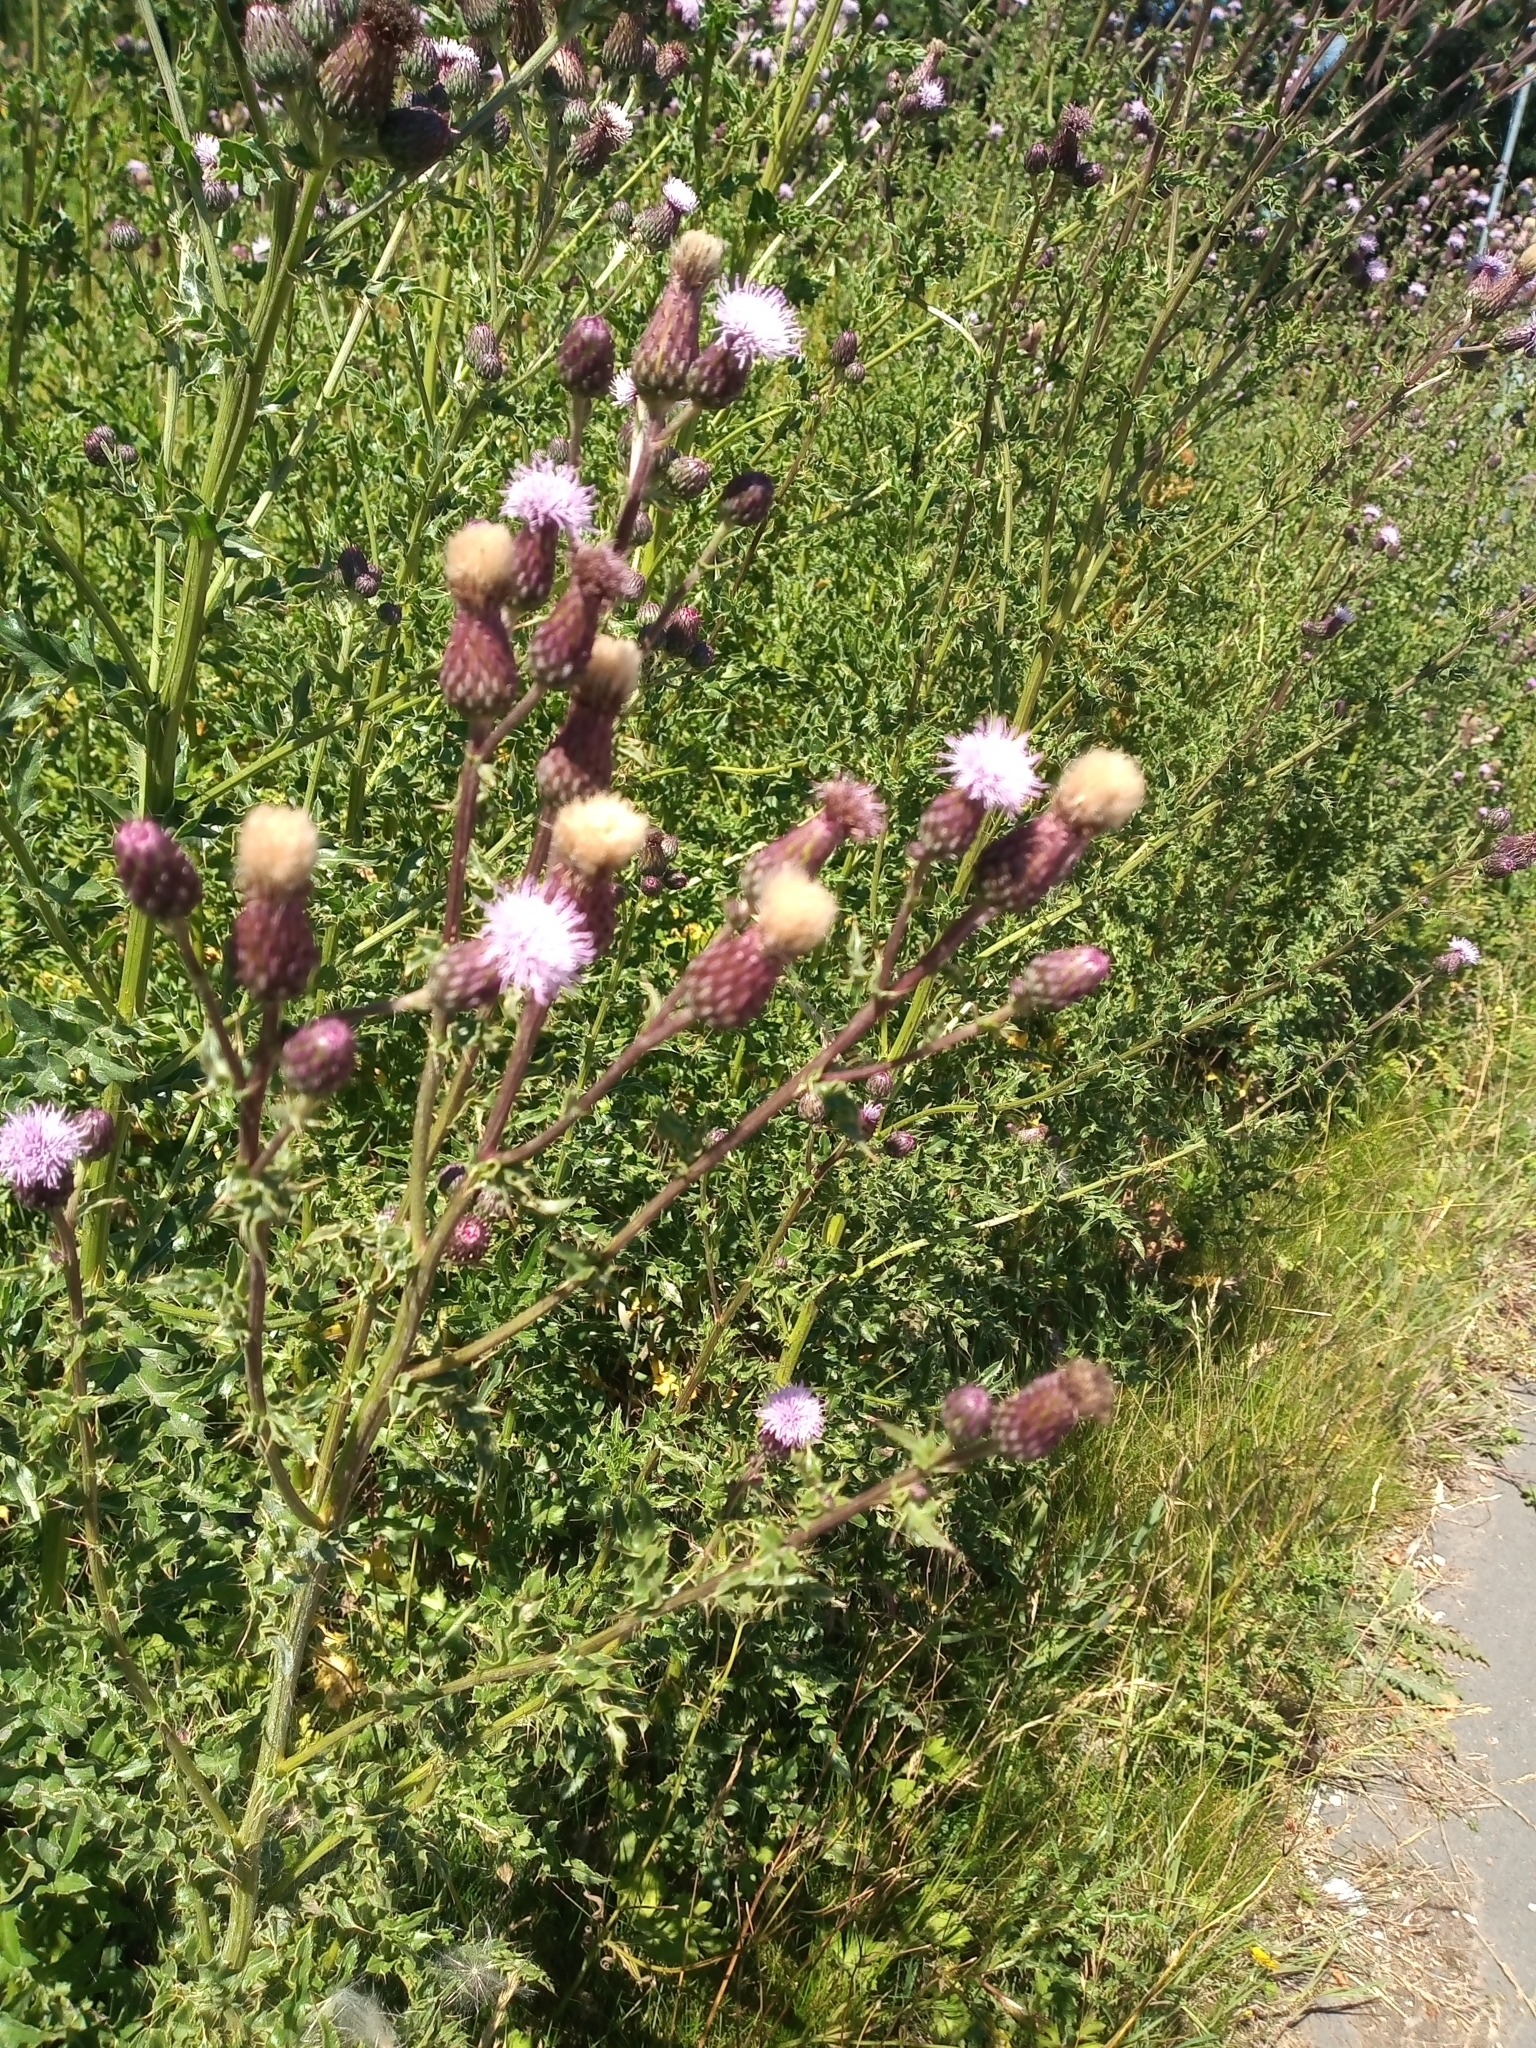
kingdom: Plantae
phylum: Tracheophyta
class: Magnoliopsida
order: Asterales
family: Asteraceae
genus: Cirsium
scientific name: Cirsium arvense
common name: Creeping thistle
